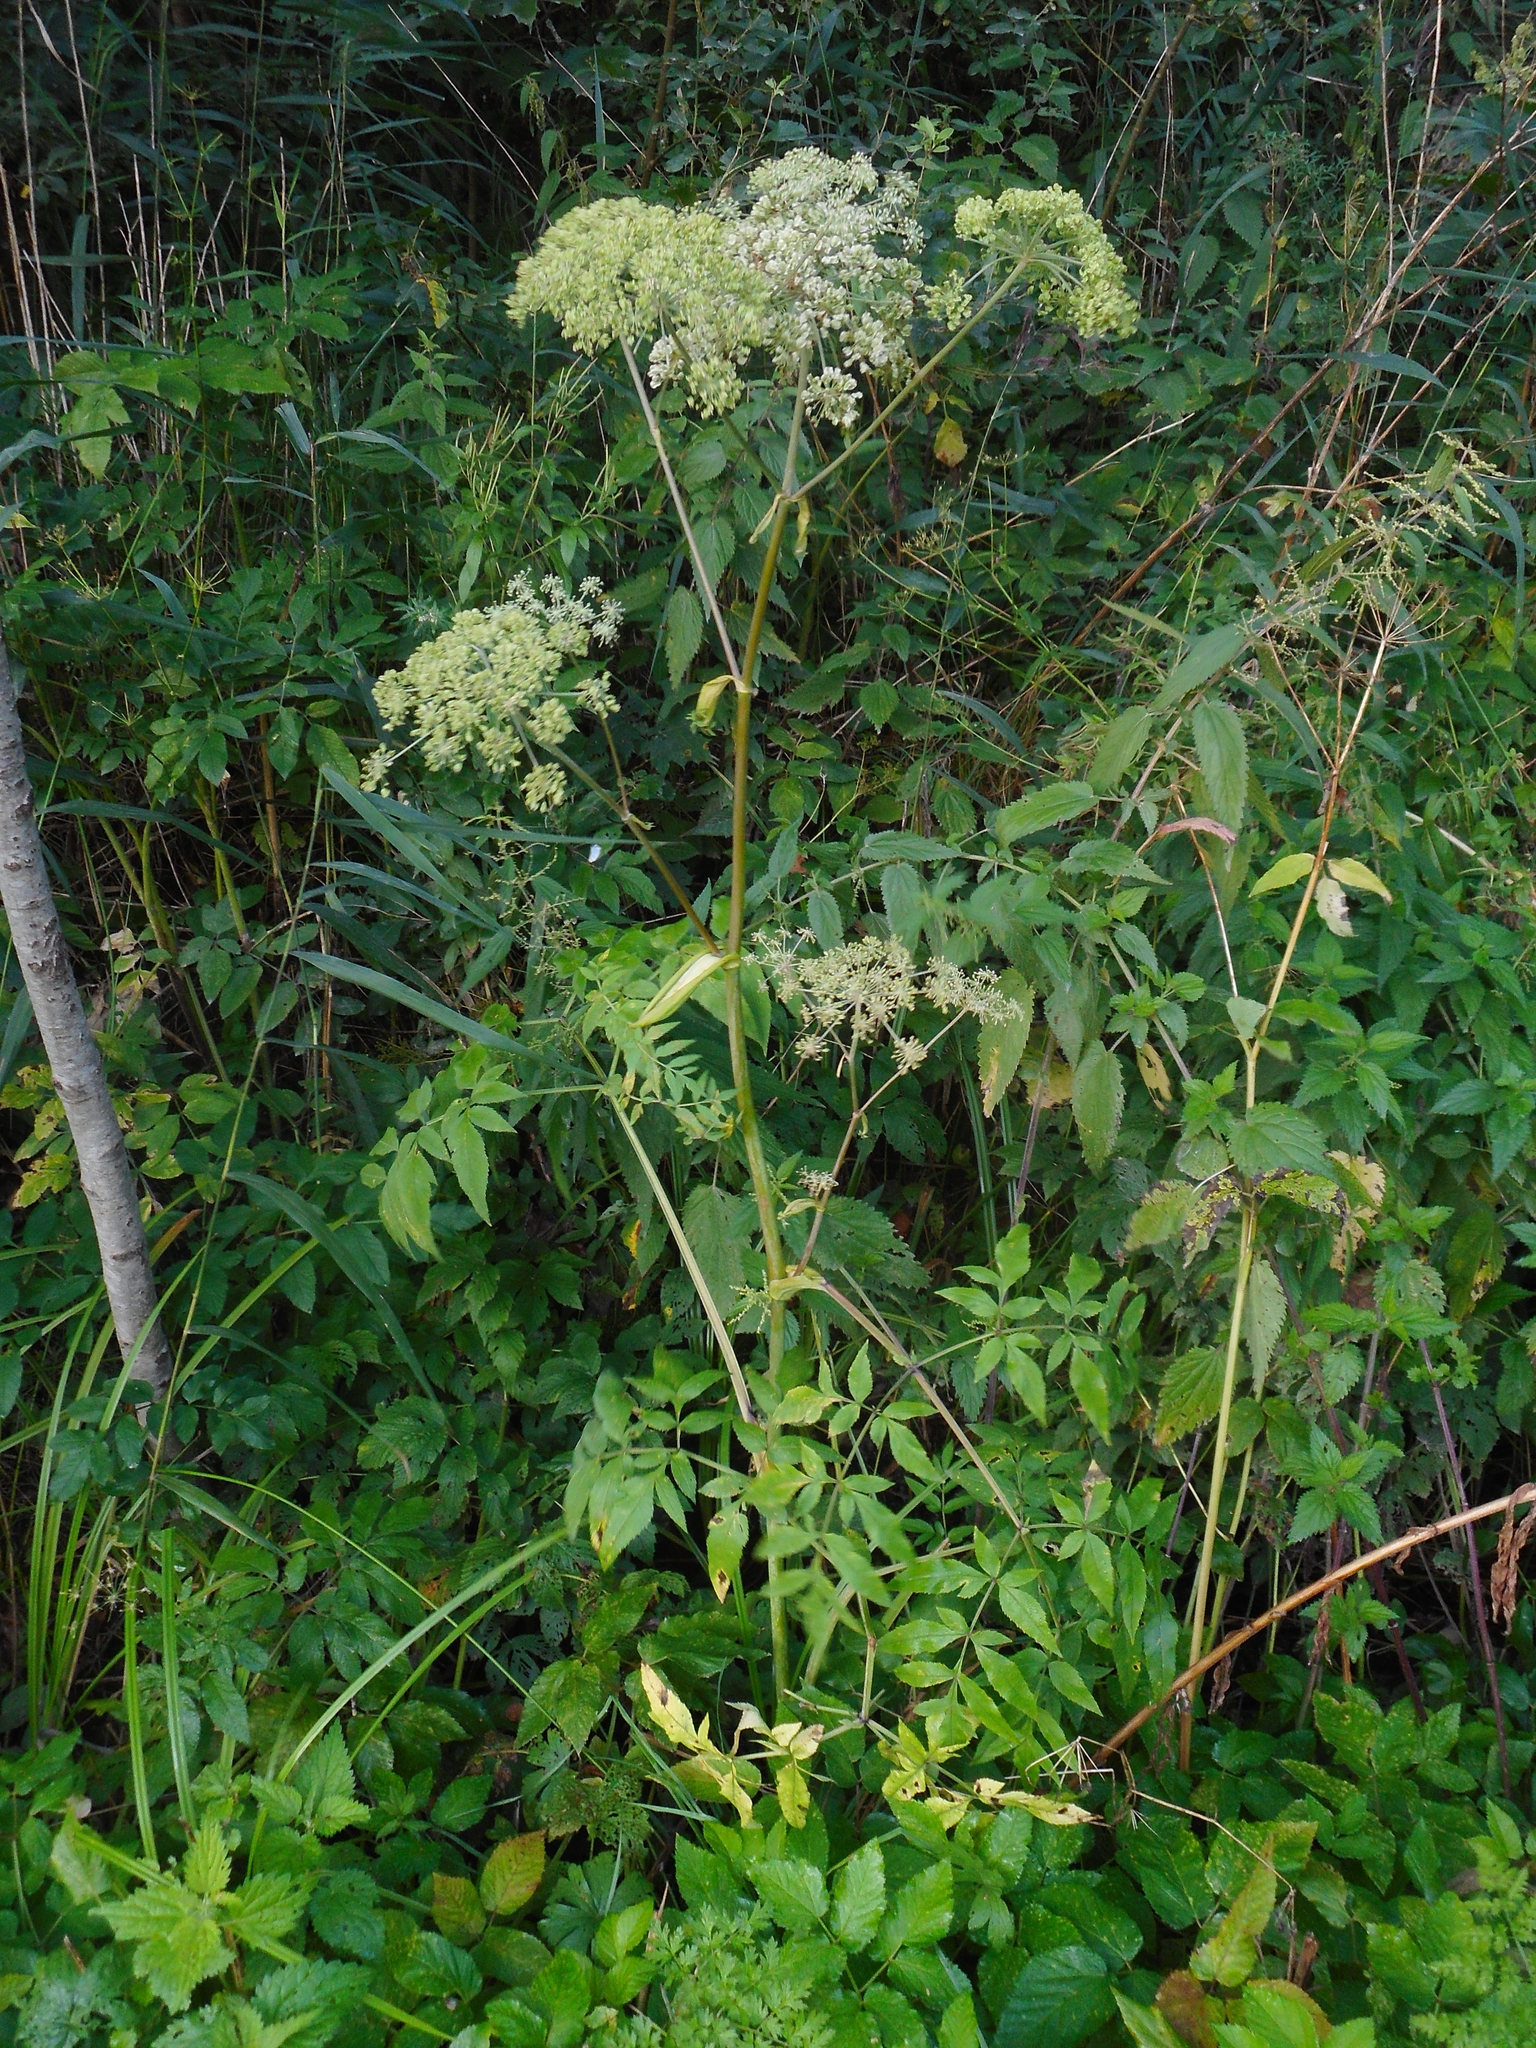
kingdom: Plantae
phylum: Tracheophyta
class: Magnoliopsida
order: Apiales
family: Apiaceae
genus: Angelica
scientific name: Angelica sylvestris
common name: Wild angelica
